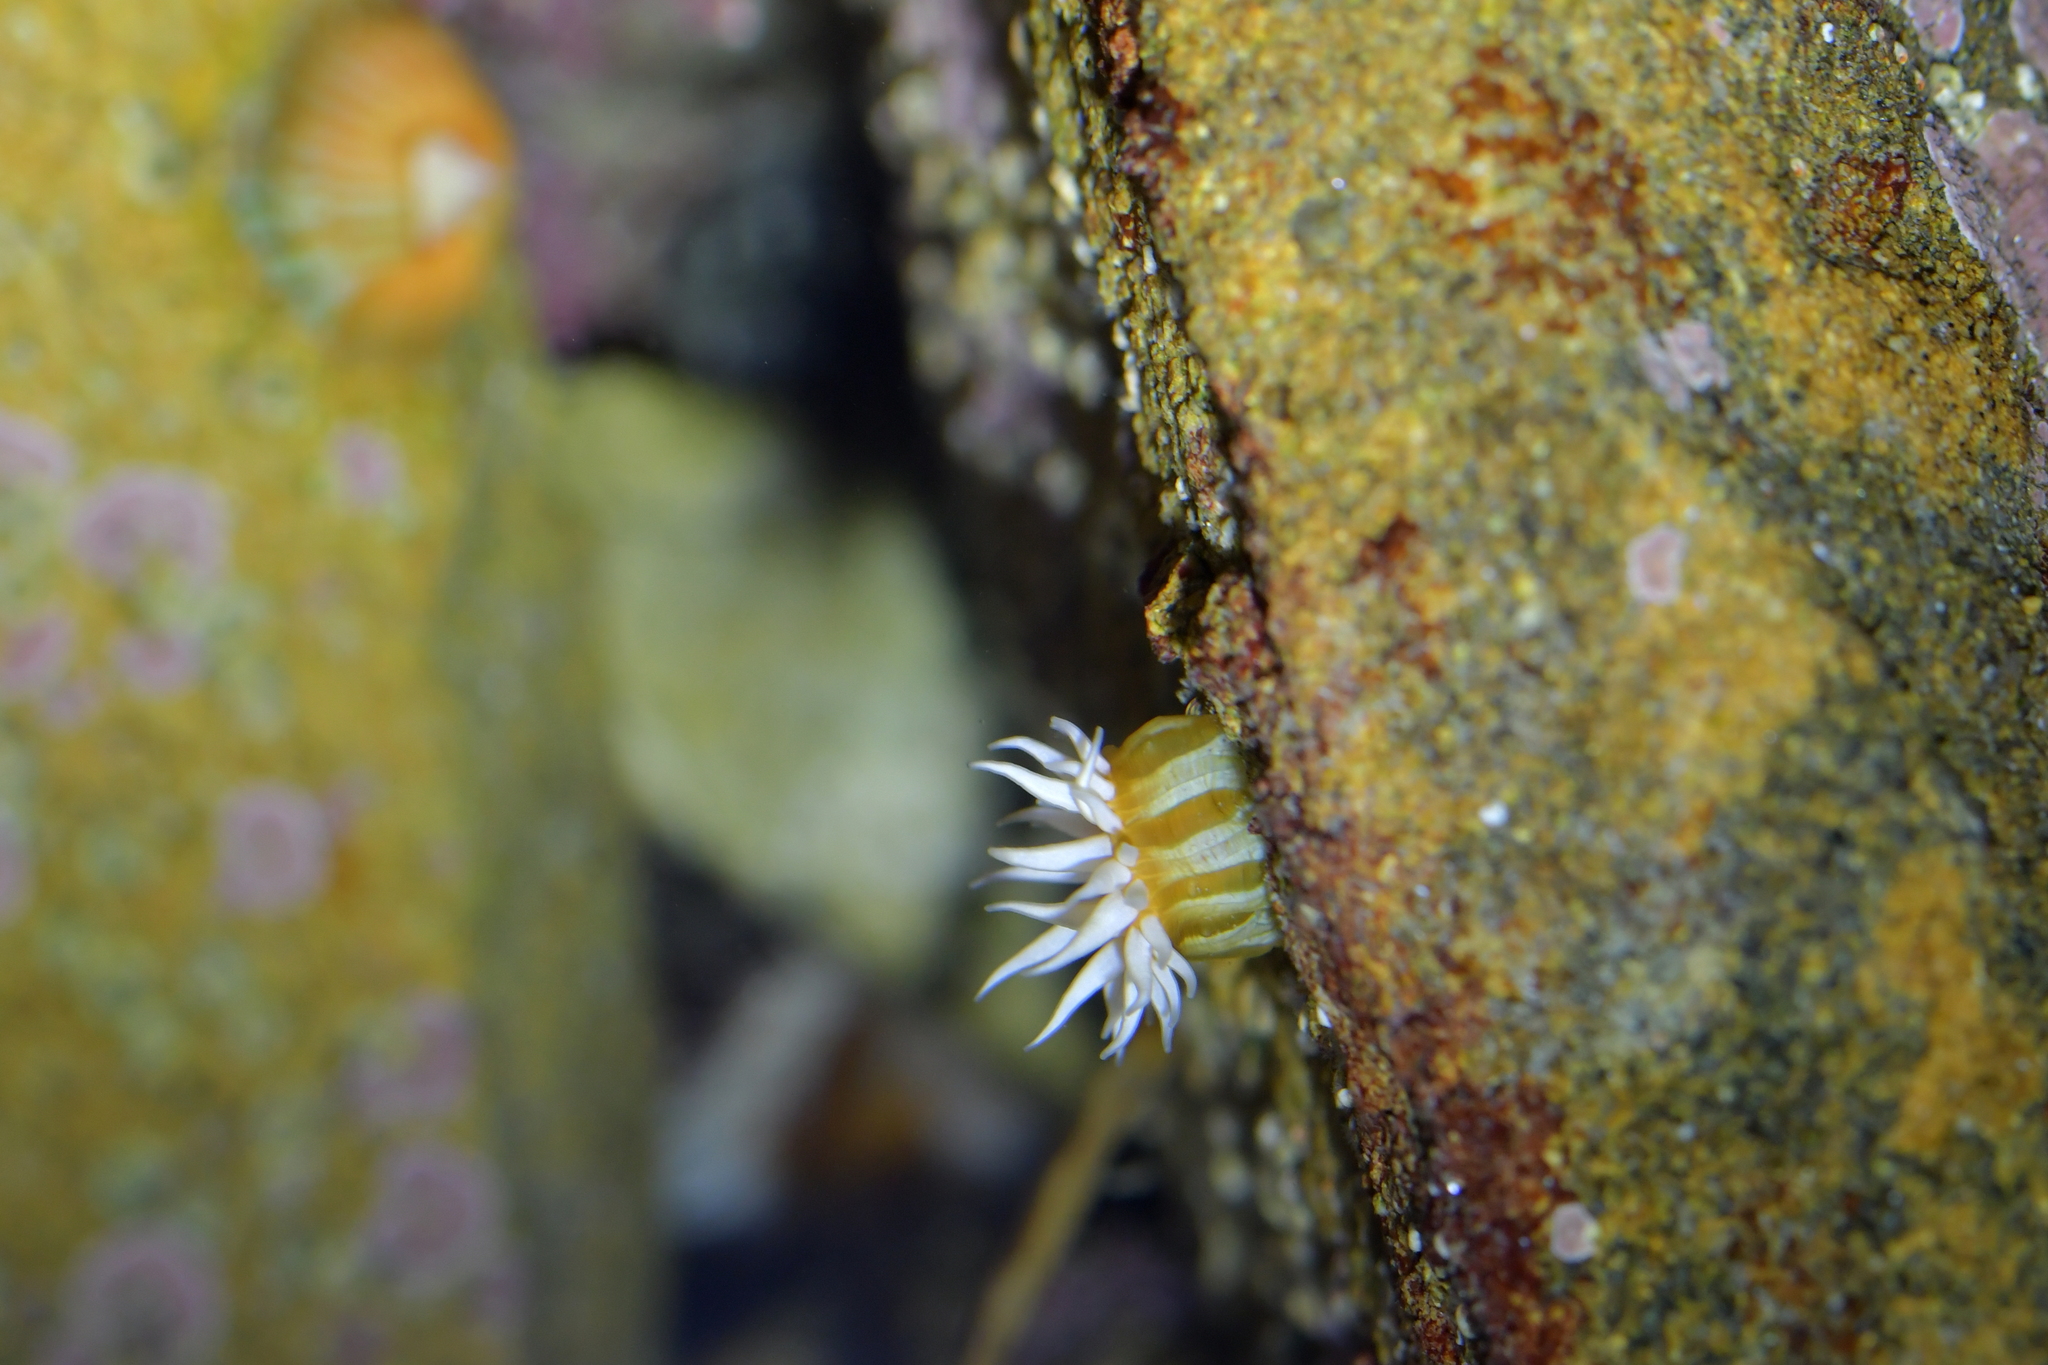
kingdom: Animalia
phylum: Cnidaria
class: Anthozoa
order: Actiniaria
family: Sagartiidae
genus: Anthothoe
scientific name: Anthothoe albocincta
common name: Orange striped anemone
